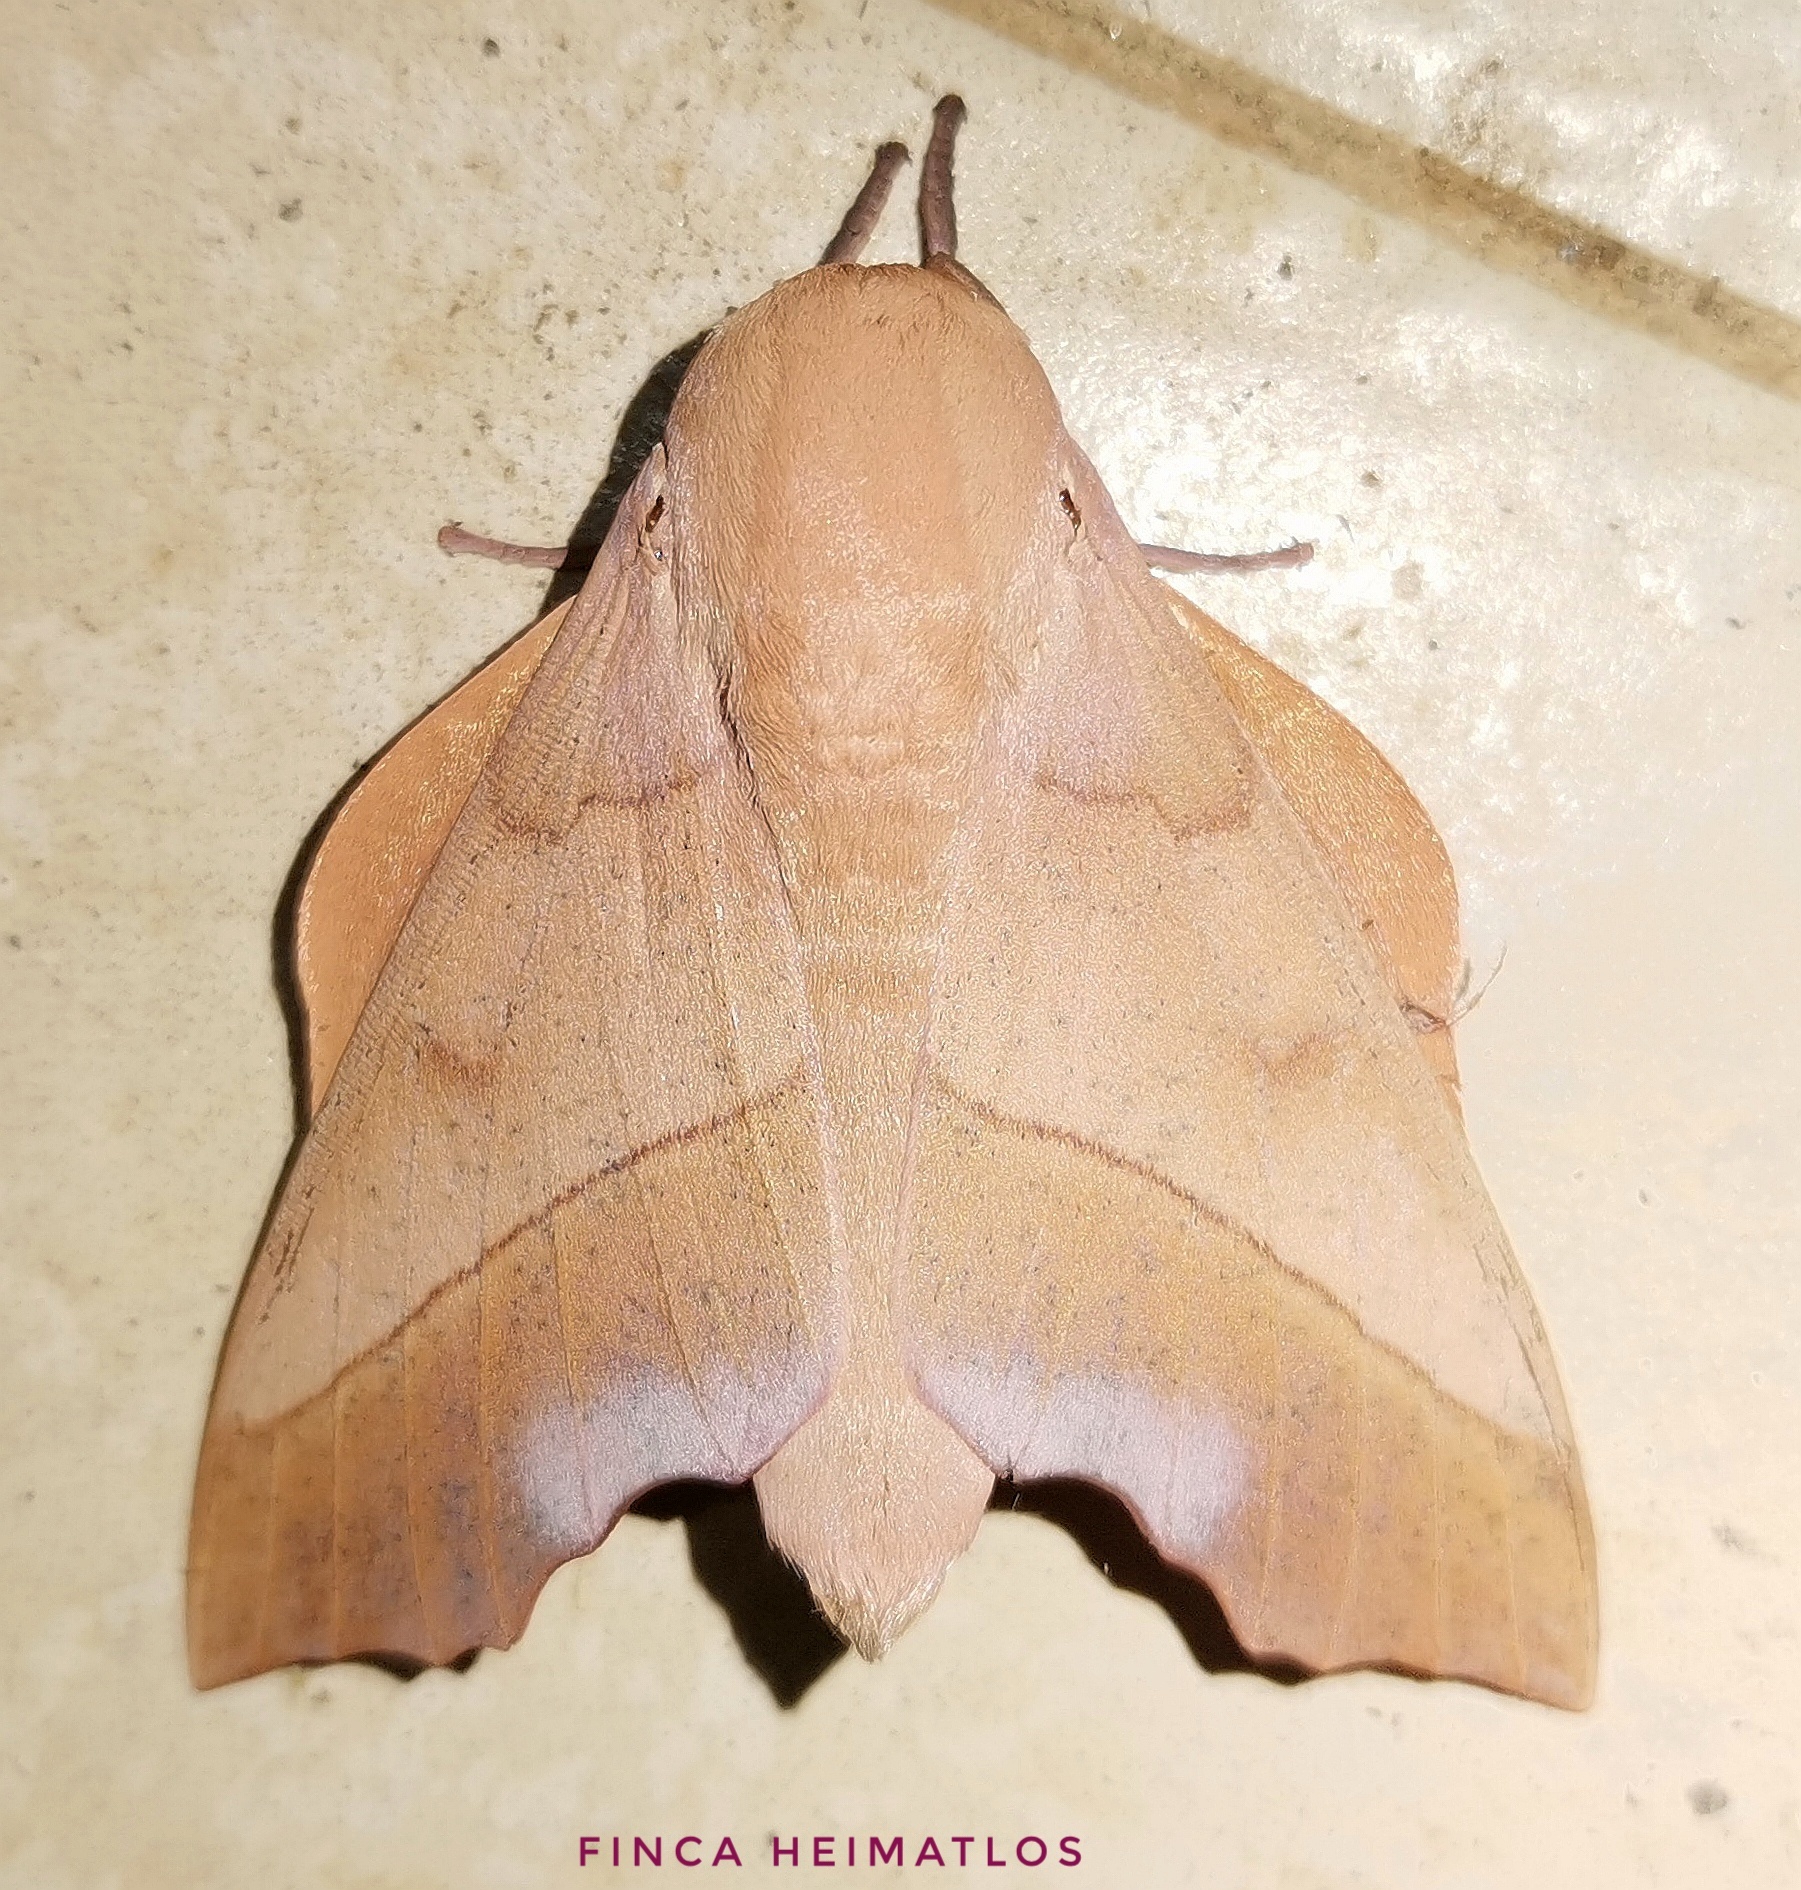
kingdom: Animalia
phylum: Arthropoda
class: Insecta
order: Lepidoptera
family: Saturniidae
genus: Syssphinx
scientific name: Syssphinx molina
